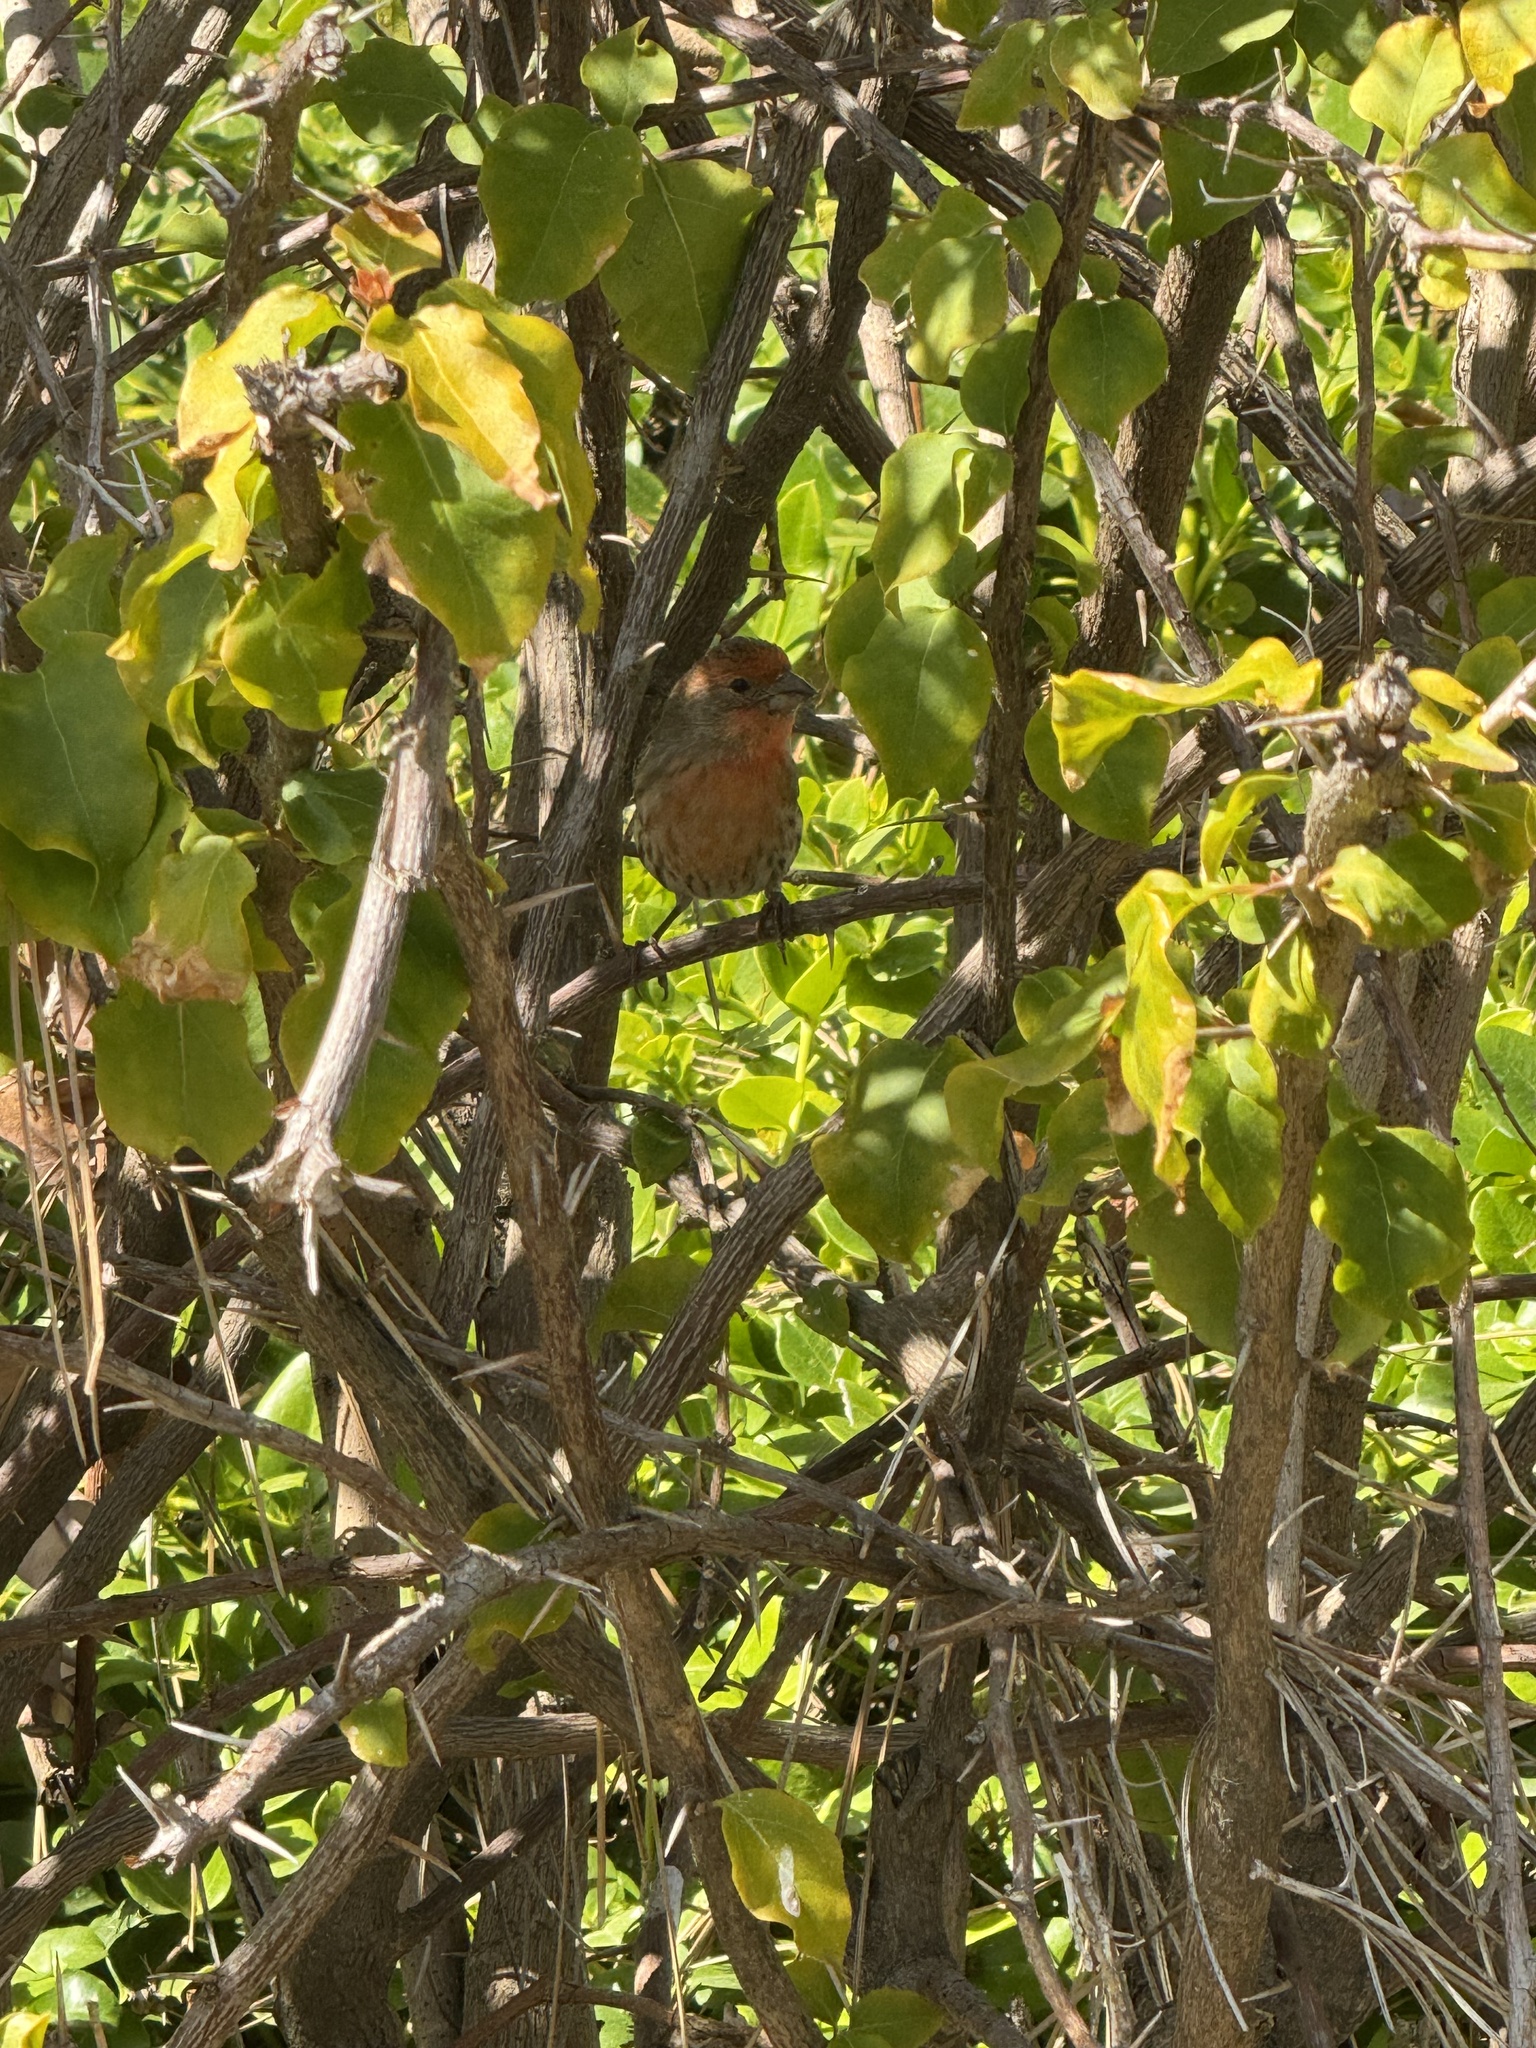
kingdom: Animalia
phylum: Chordata
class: Aves
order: Passeriformes
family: Fringillidae
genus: Haemorhous
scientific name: Haemorhous mexicanus
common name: House finch
